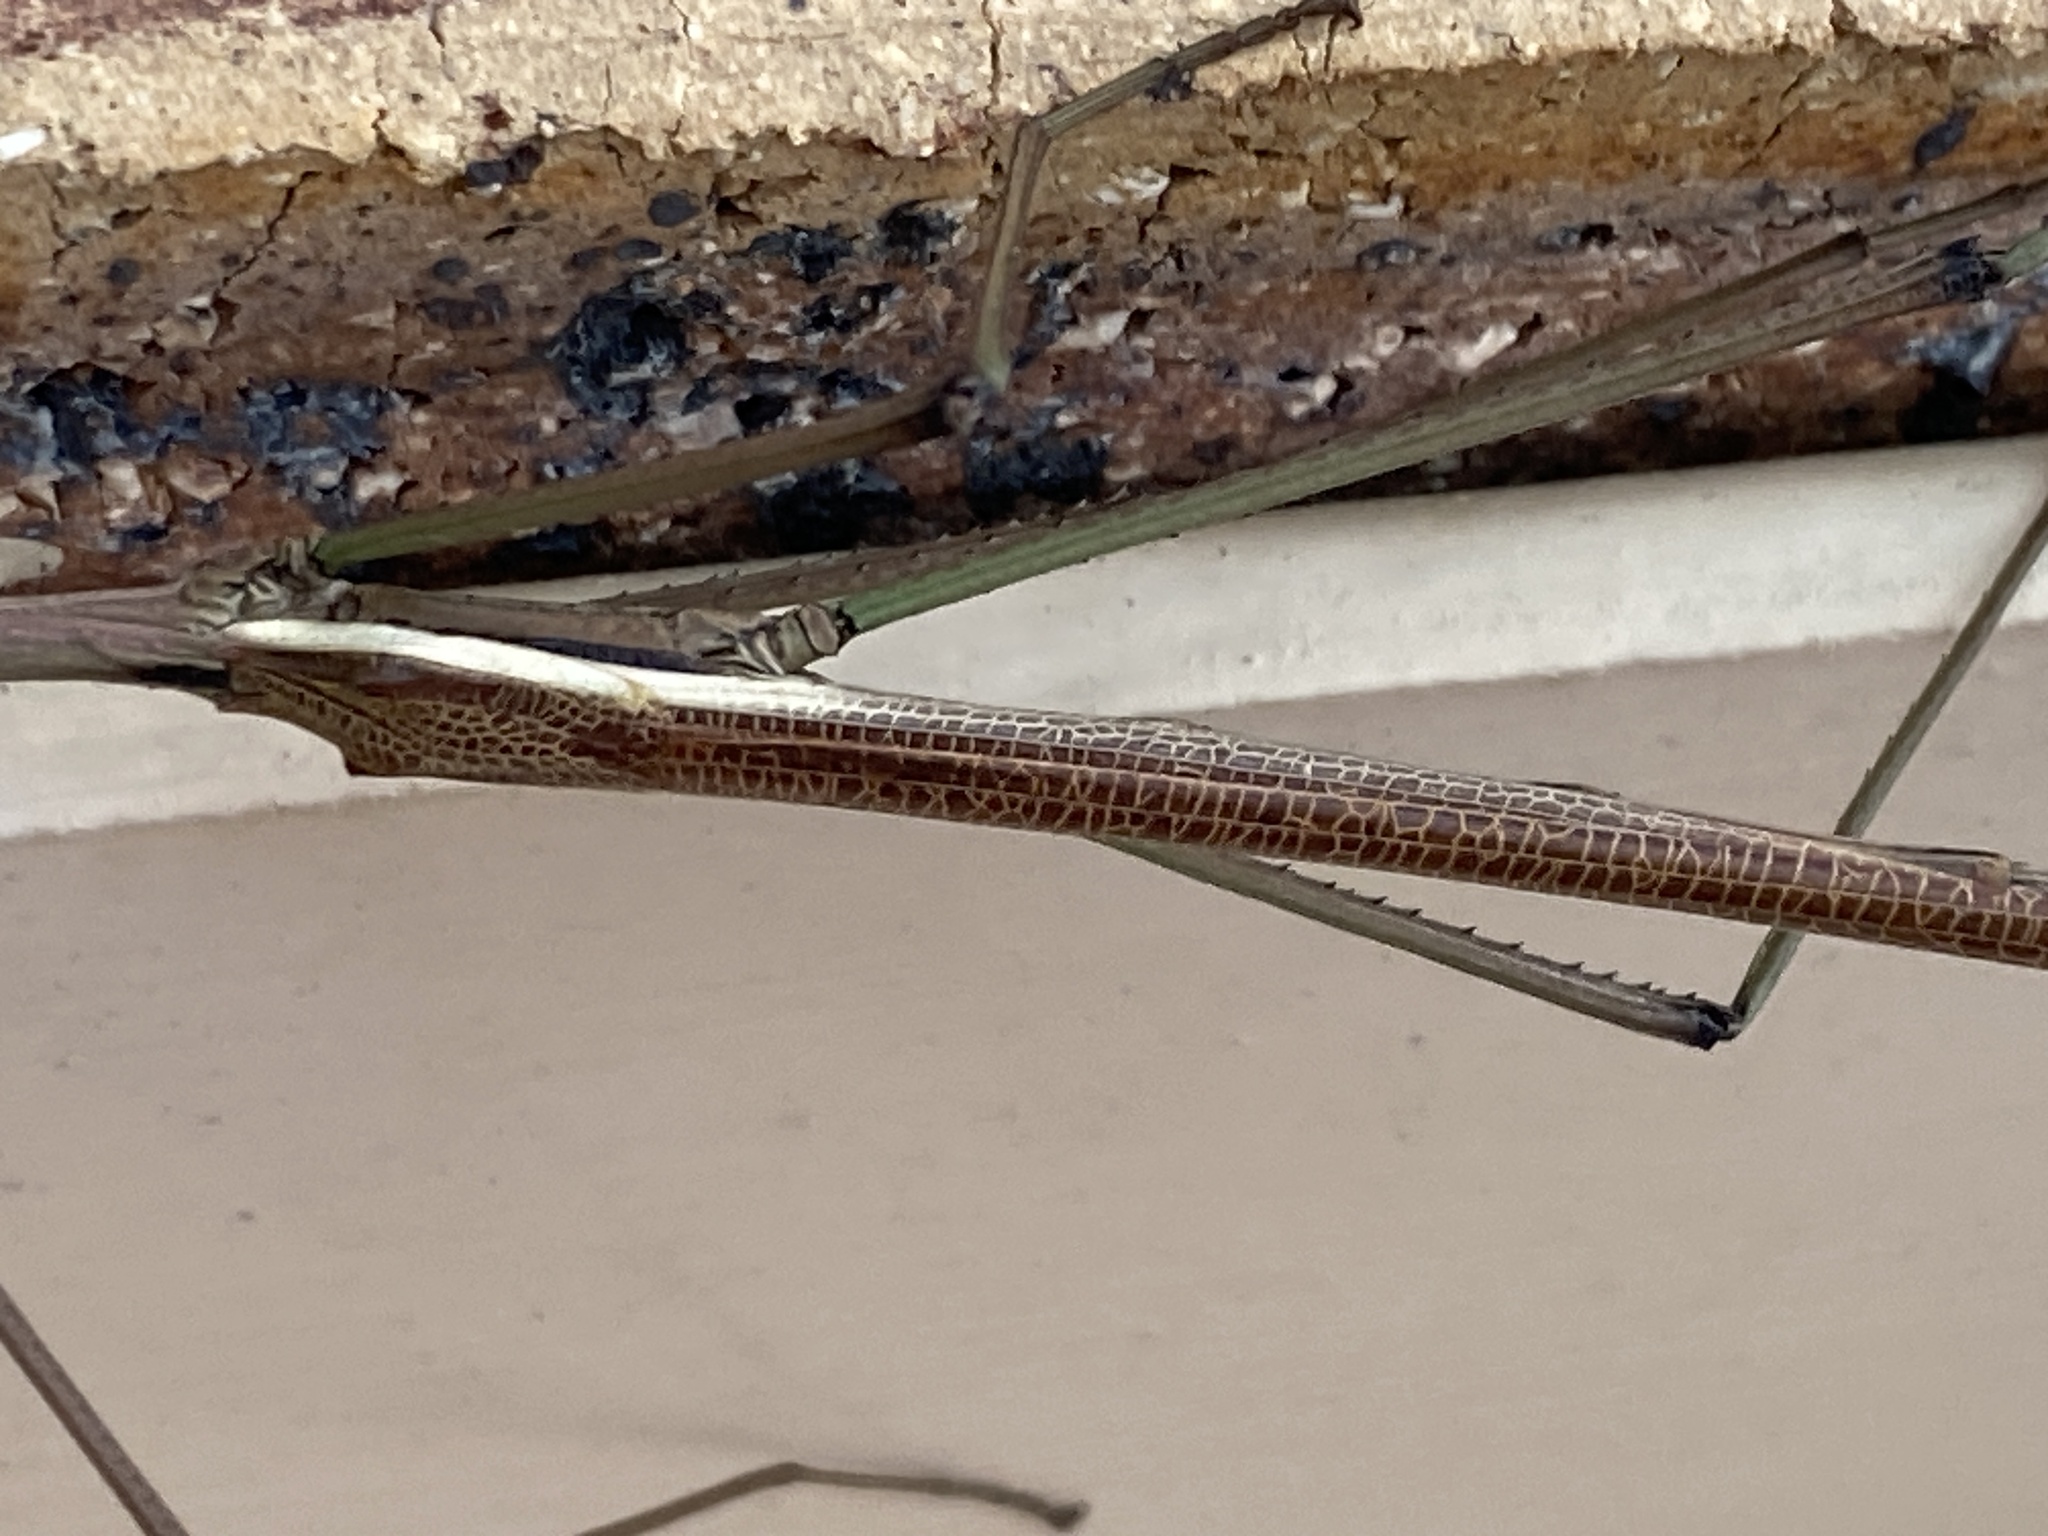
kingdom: Animalia
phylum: Arthropoda
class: Insecta
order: Phasmida
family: Phasmatidae
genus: Anchiale
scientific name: Anchiale austrotessulata
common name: Tessellated stick-insect
